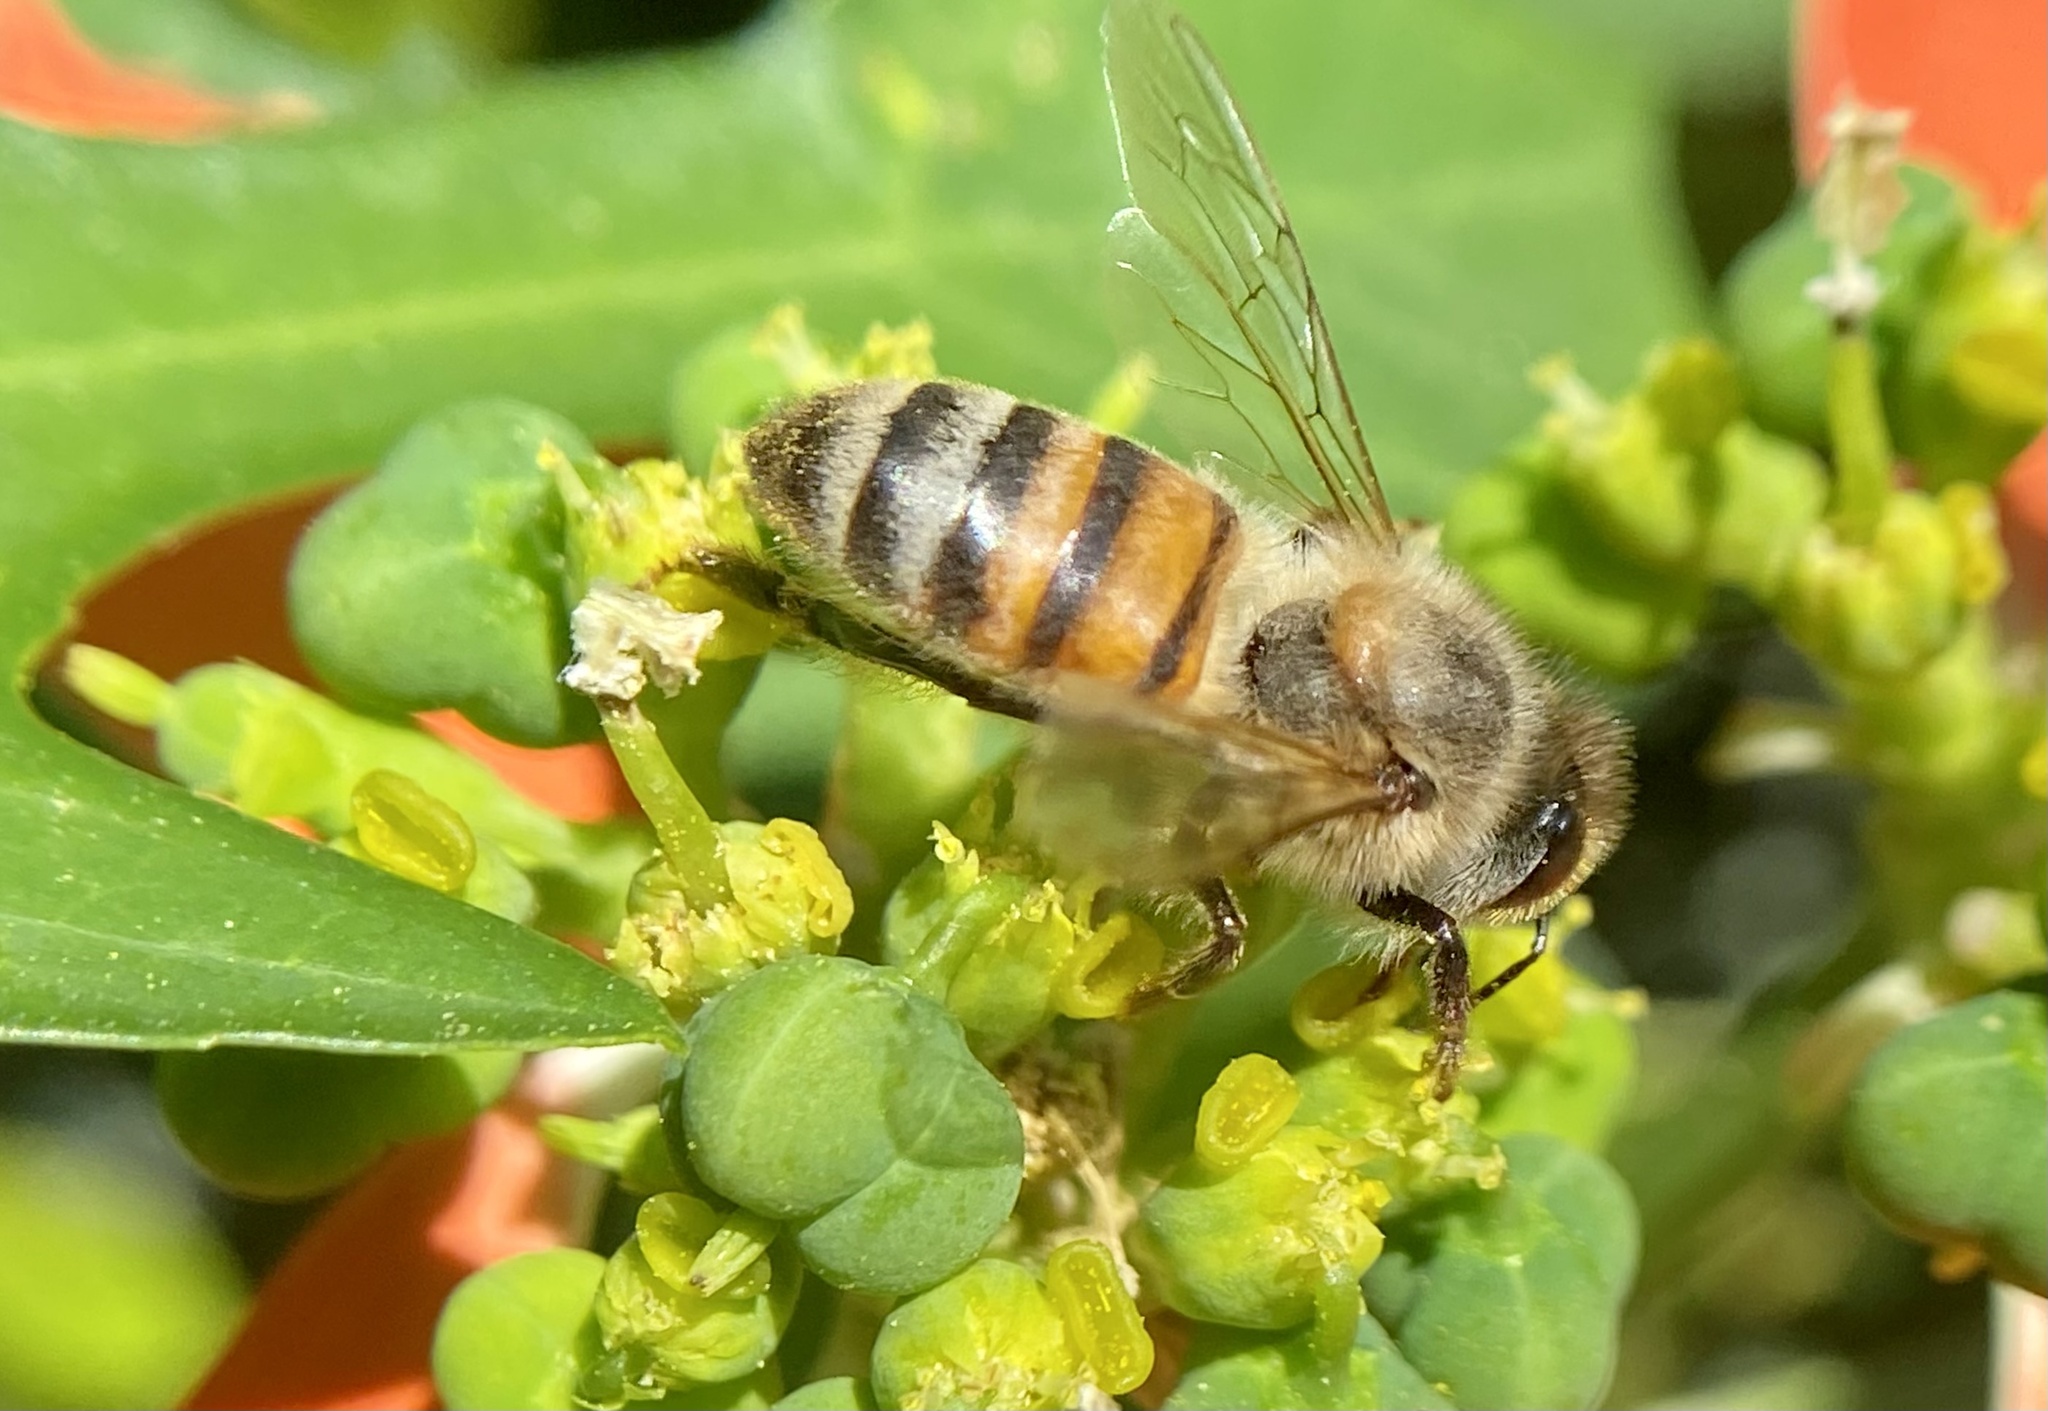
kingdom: Animalia
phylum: Arthropoda
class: Insecta
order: Hymenoptera
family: Apidae
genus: Apis
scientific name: Apis mellifera
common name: Honey bee
